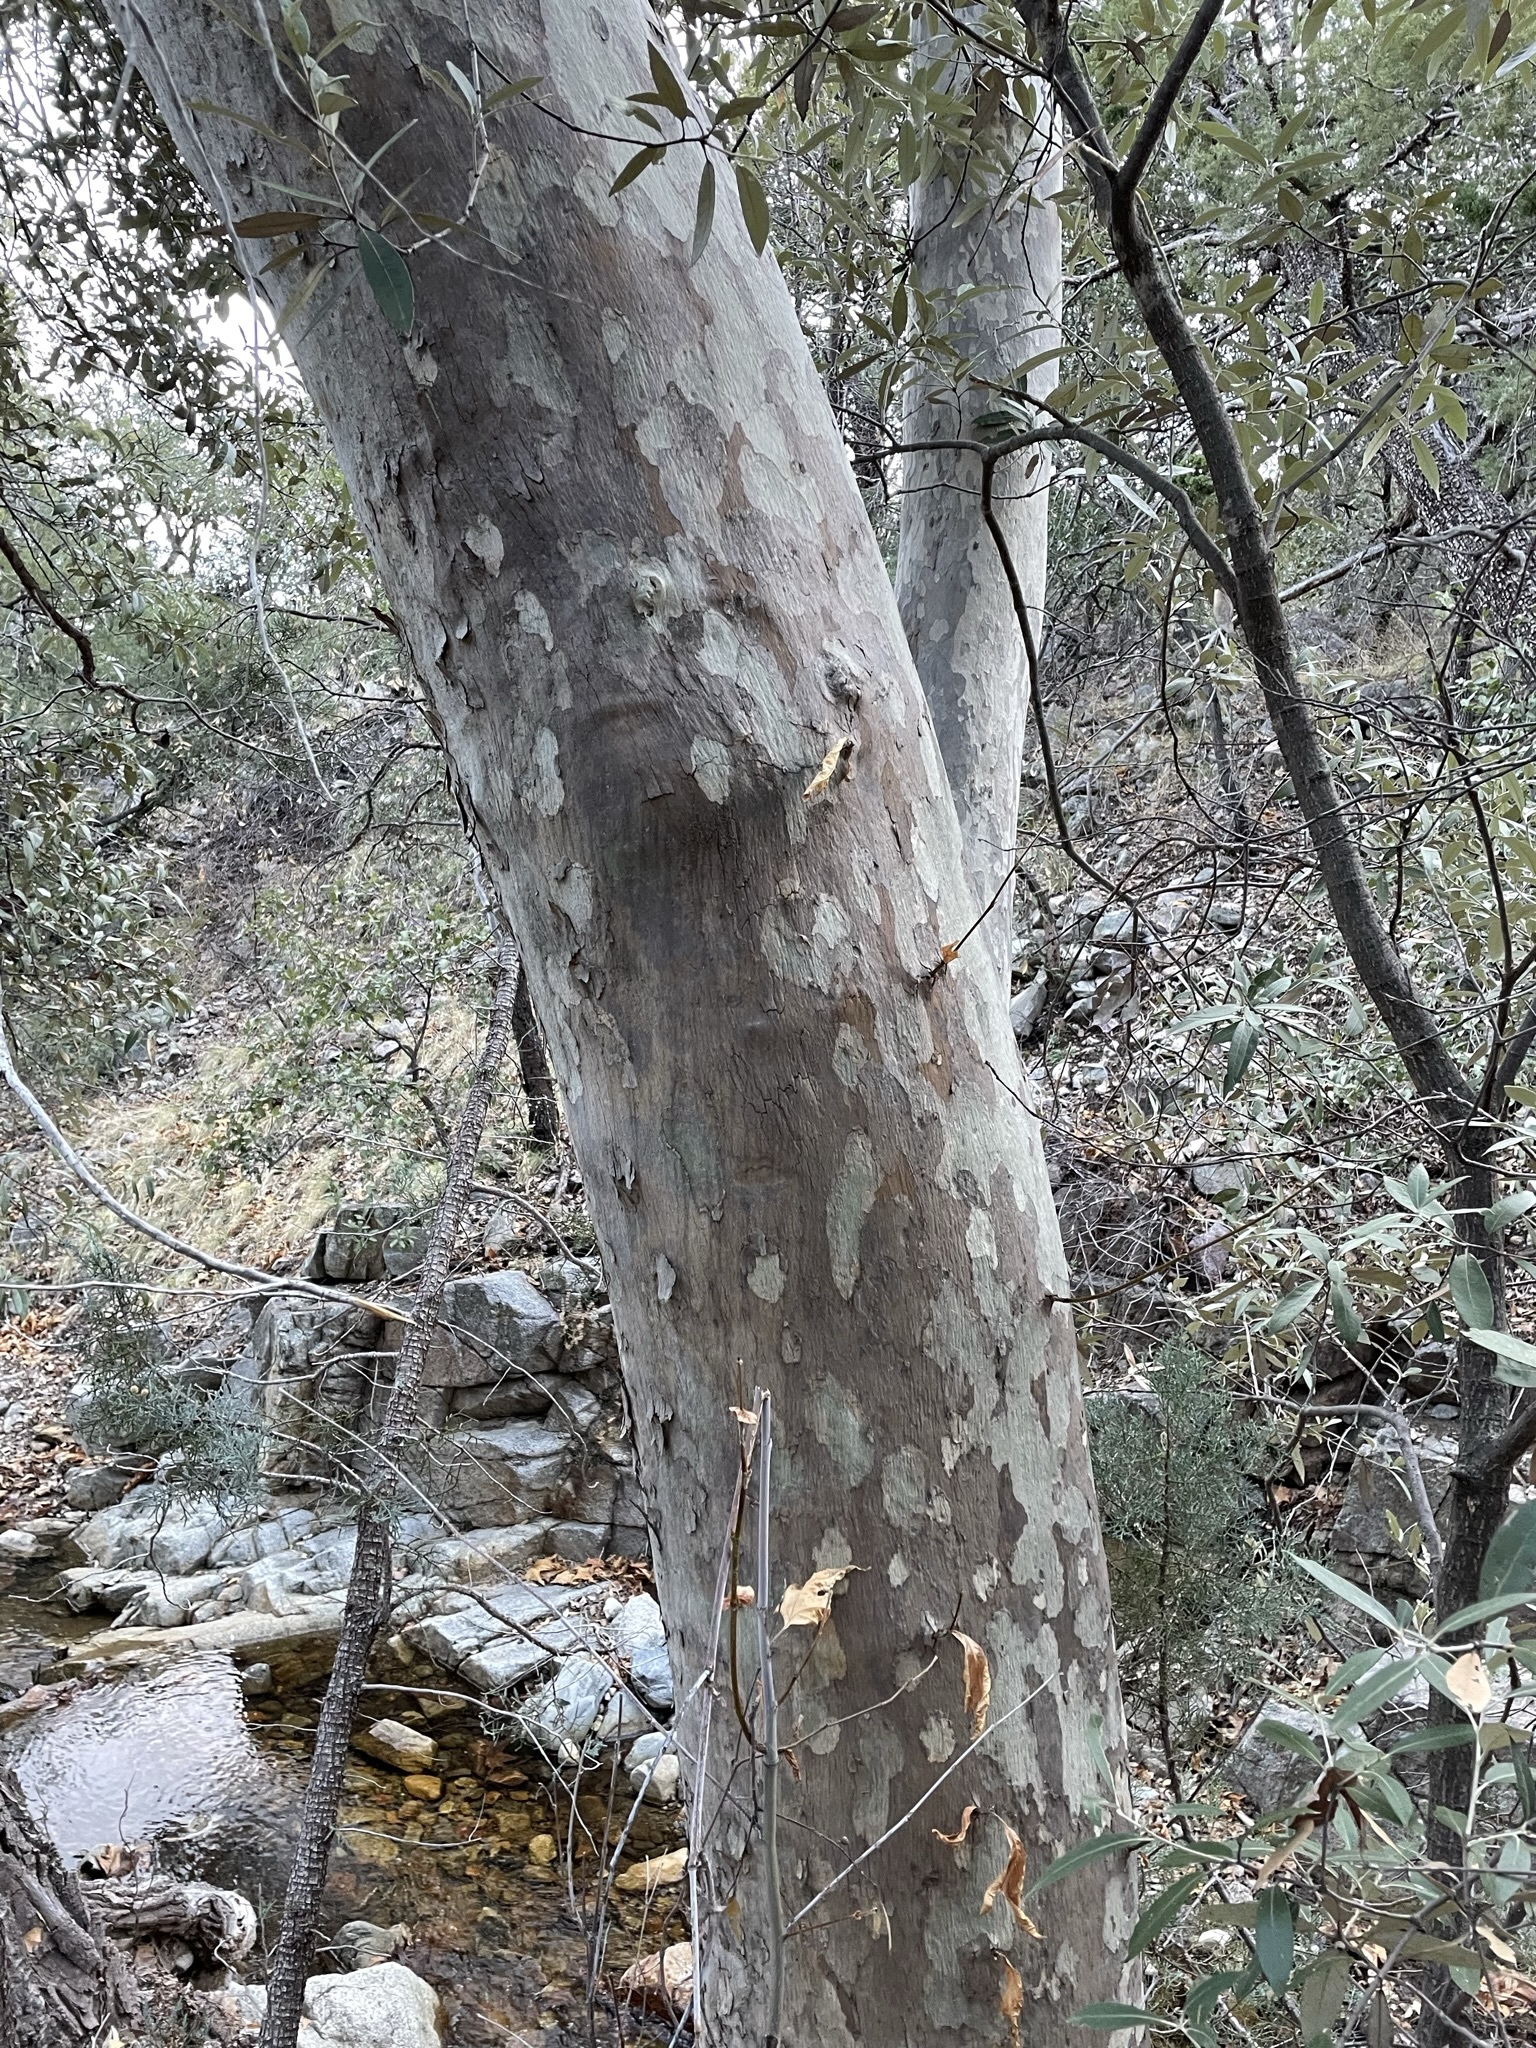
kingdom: Plantae
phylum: Tracheophyta
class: Magnoliopsida
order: Proteales
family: Platanaceae
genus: Platanus
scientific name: Platanus wrightii
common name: Arizona sycamore
